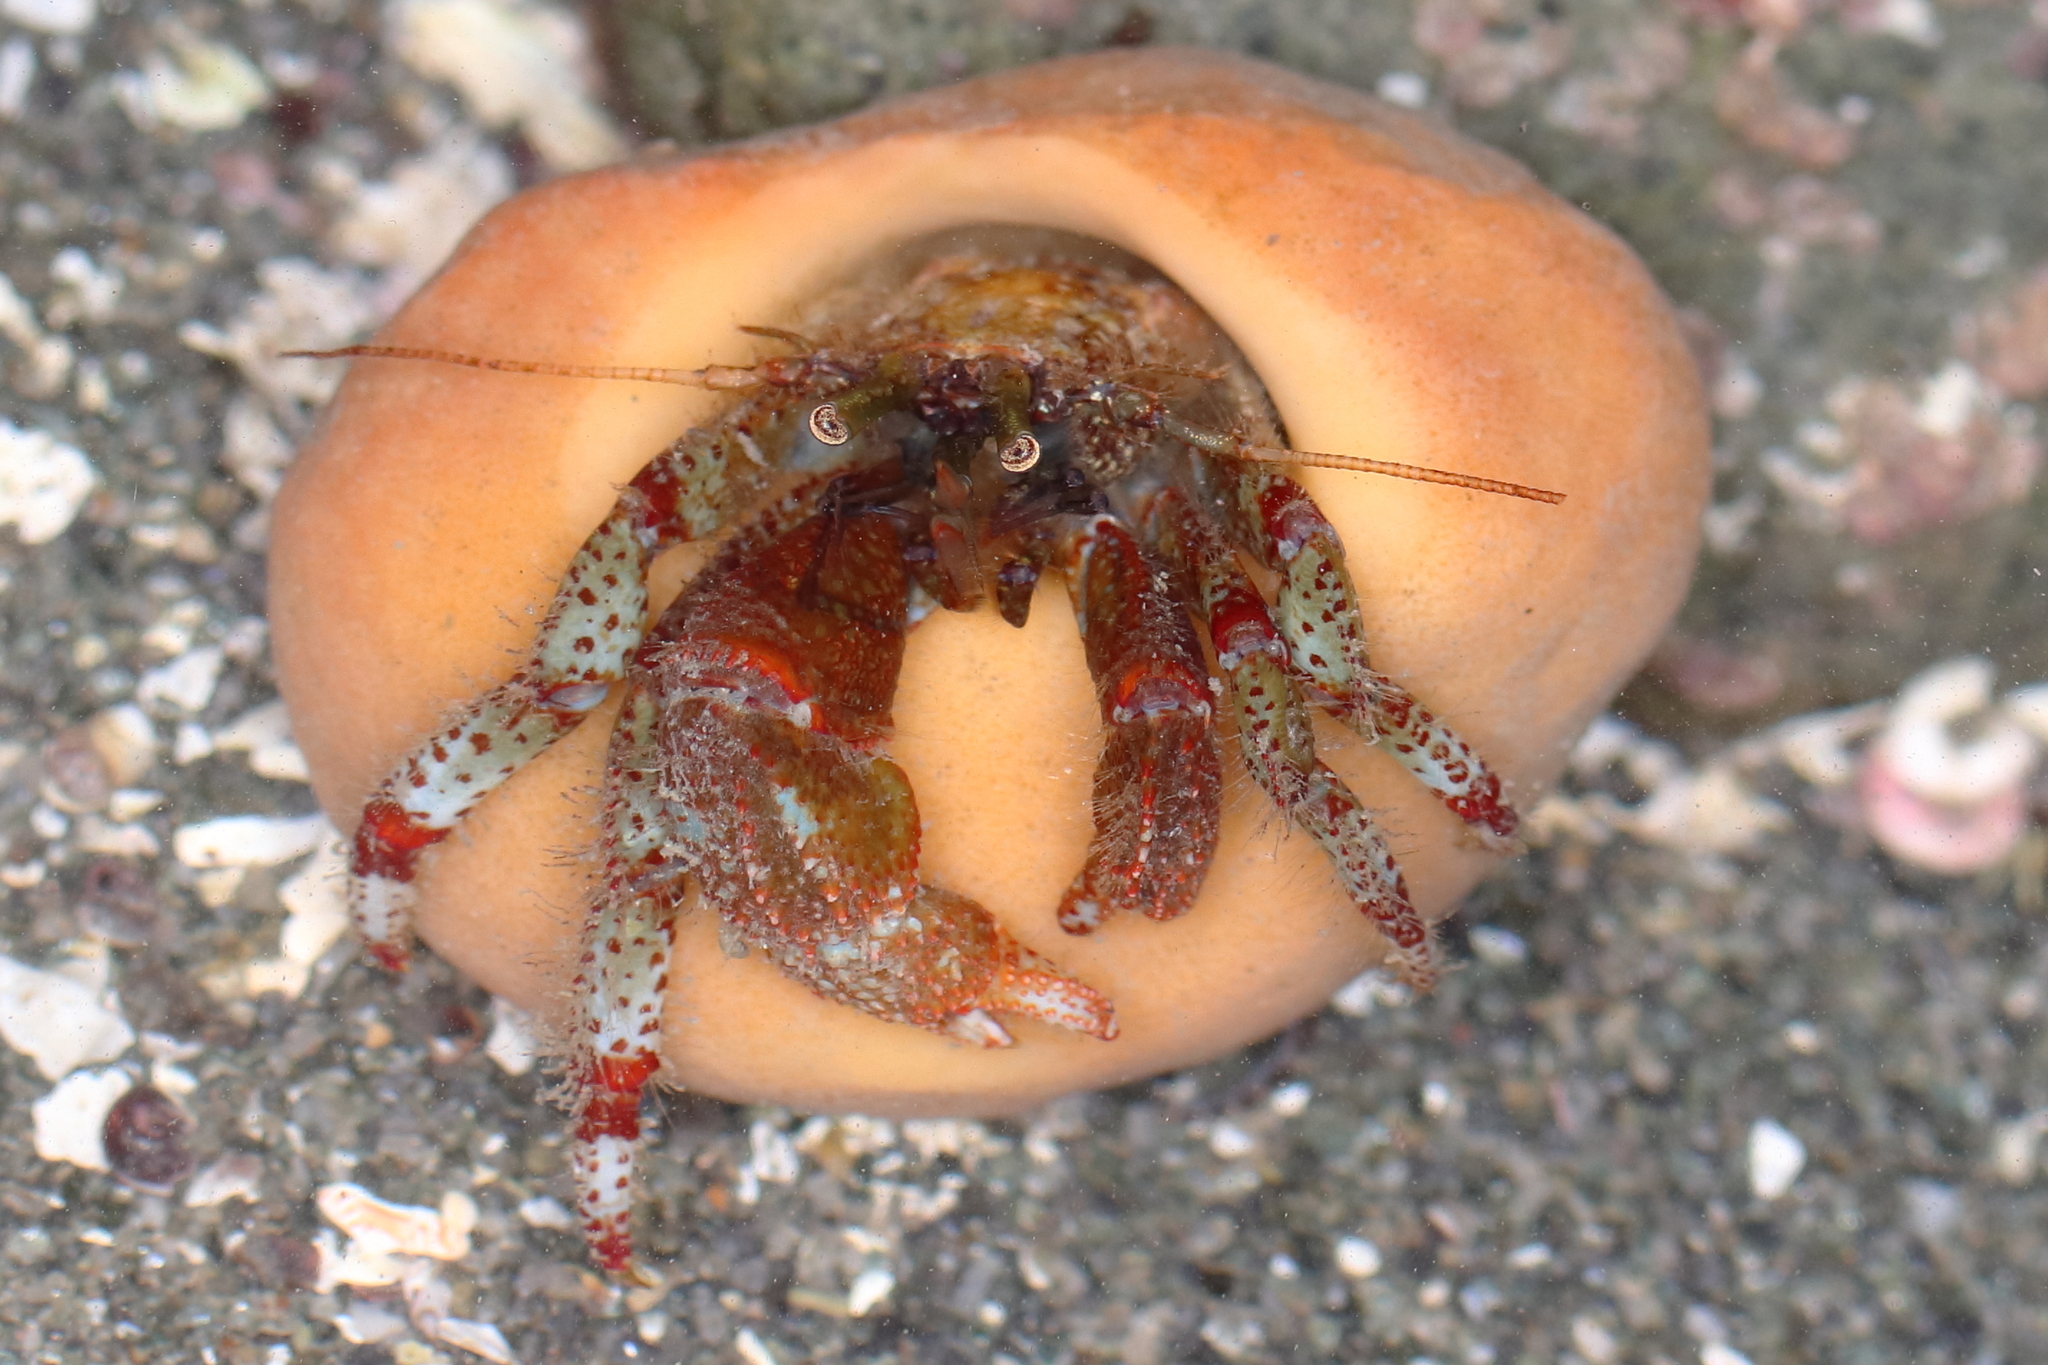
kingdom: Animalia
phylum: Porifera
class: Demospongiae
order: Suberitida
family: Suberitidae
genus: Suberites
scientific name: Suberites latus
